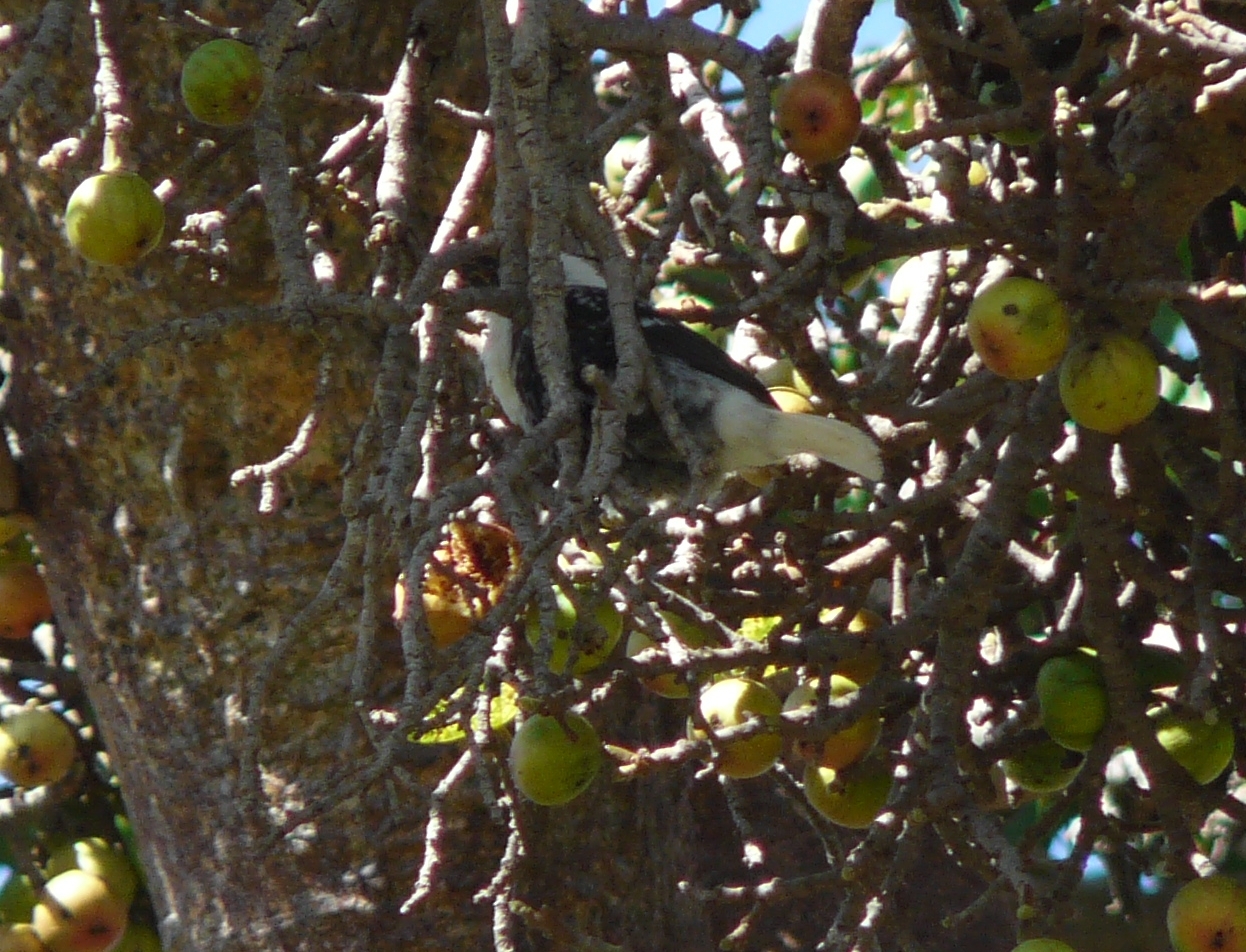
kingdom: Animalia
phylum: Chordata
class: Aves
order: Piciformes
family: Lybiidae
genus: Lybius
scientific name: Lybius leucocephalus
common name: White-headed barbet
